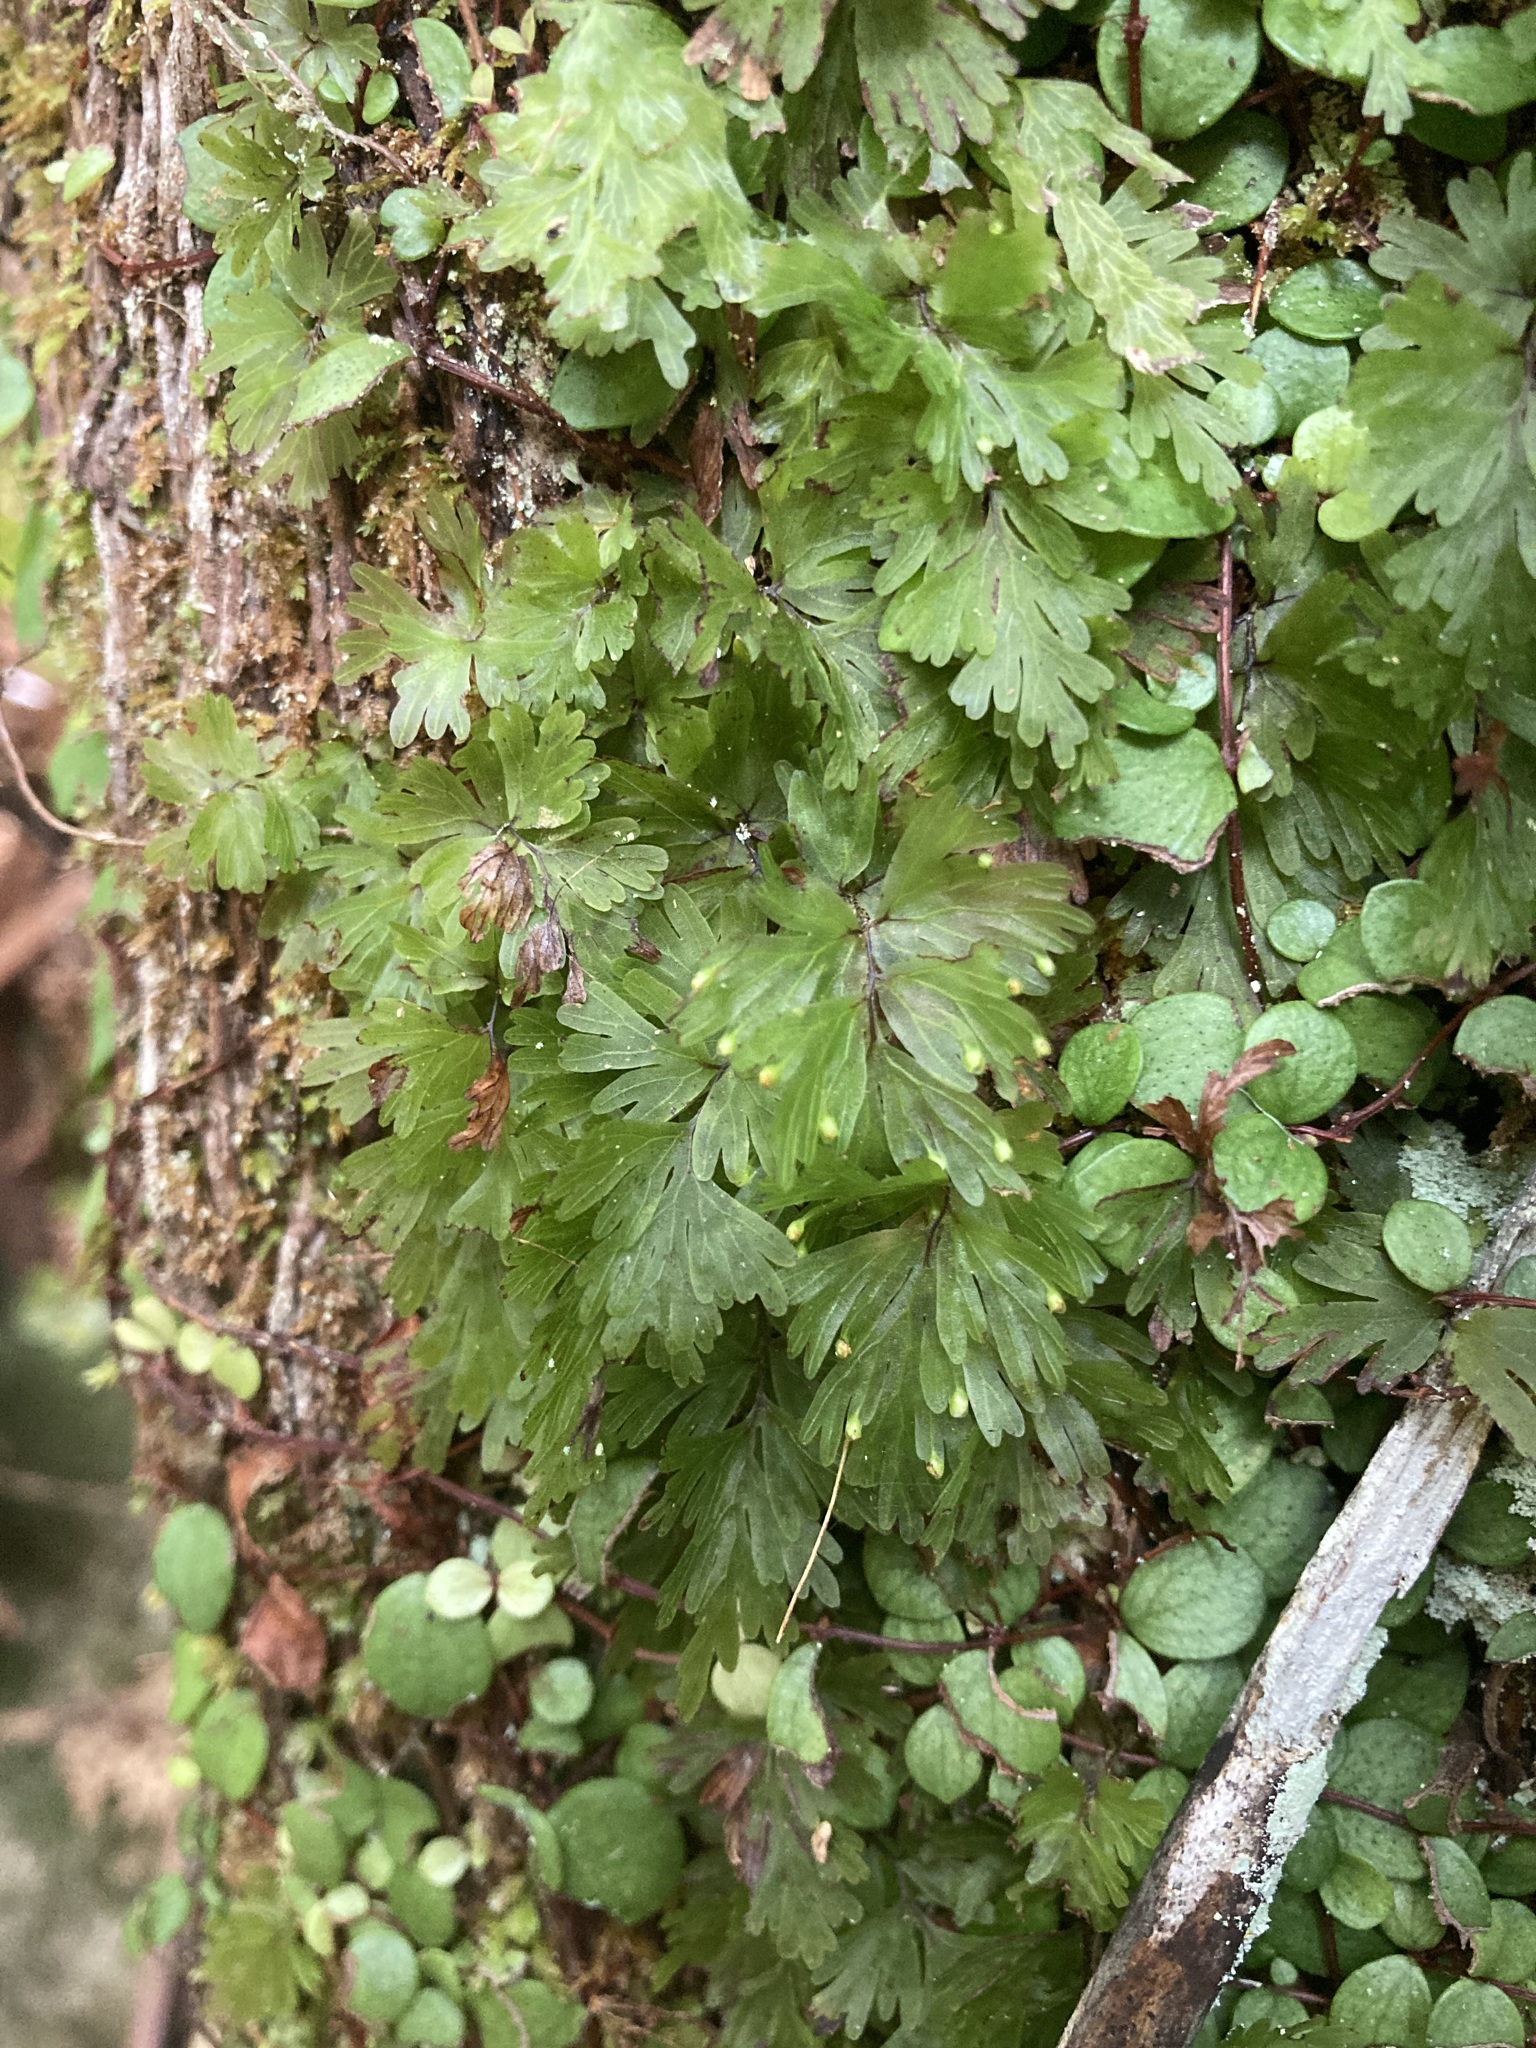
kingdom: Plantae
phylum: Tracheophyta
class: Polypodiopsida
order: Hymenophyllales
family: Hymenophyllaceae
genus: Hymenophyllum
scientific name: Hymenophyllum flabellatum
